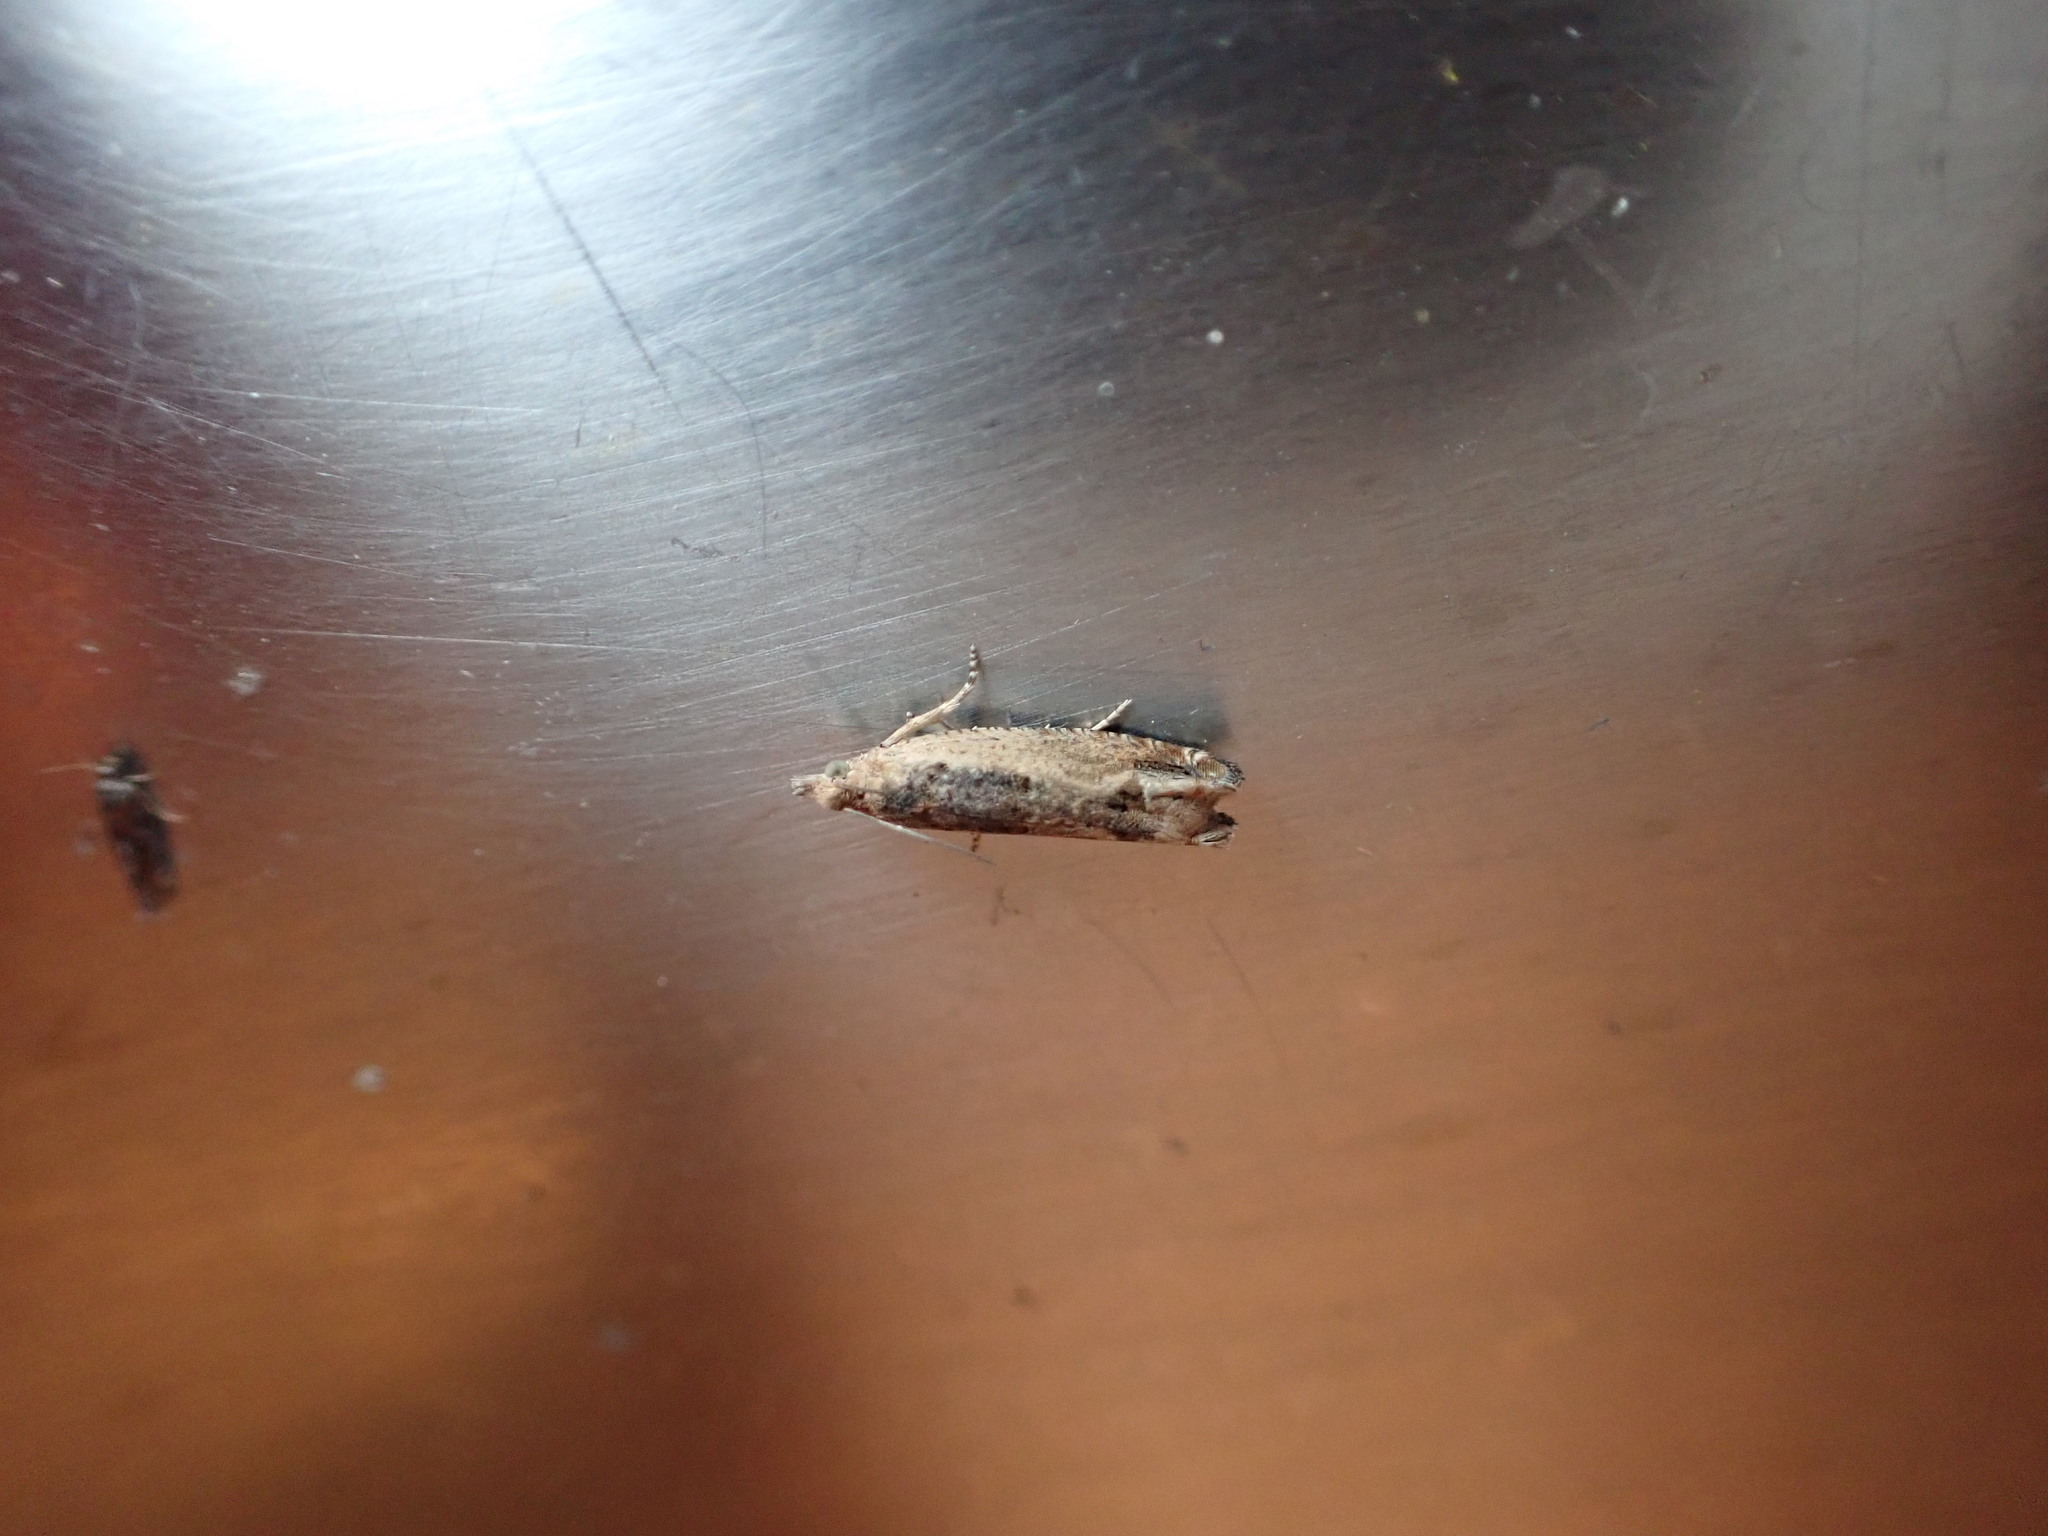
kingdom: Animalia
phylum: Arthropoda
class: Insecta
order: Lepidoptera
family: Tortricidae
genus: Crocidosema
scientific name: Crocidosema plebejana
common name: Southern bell
